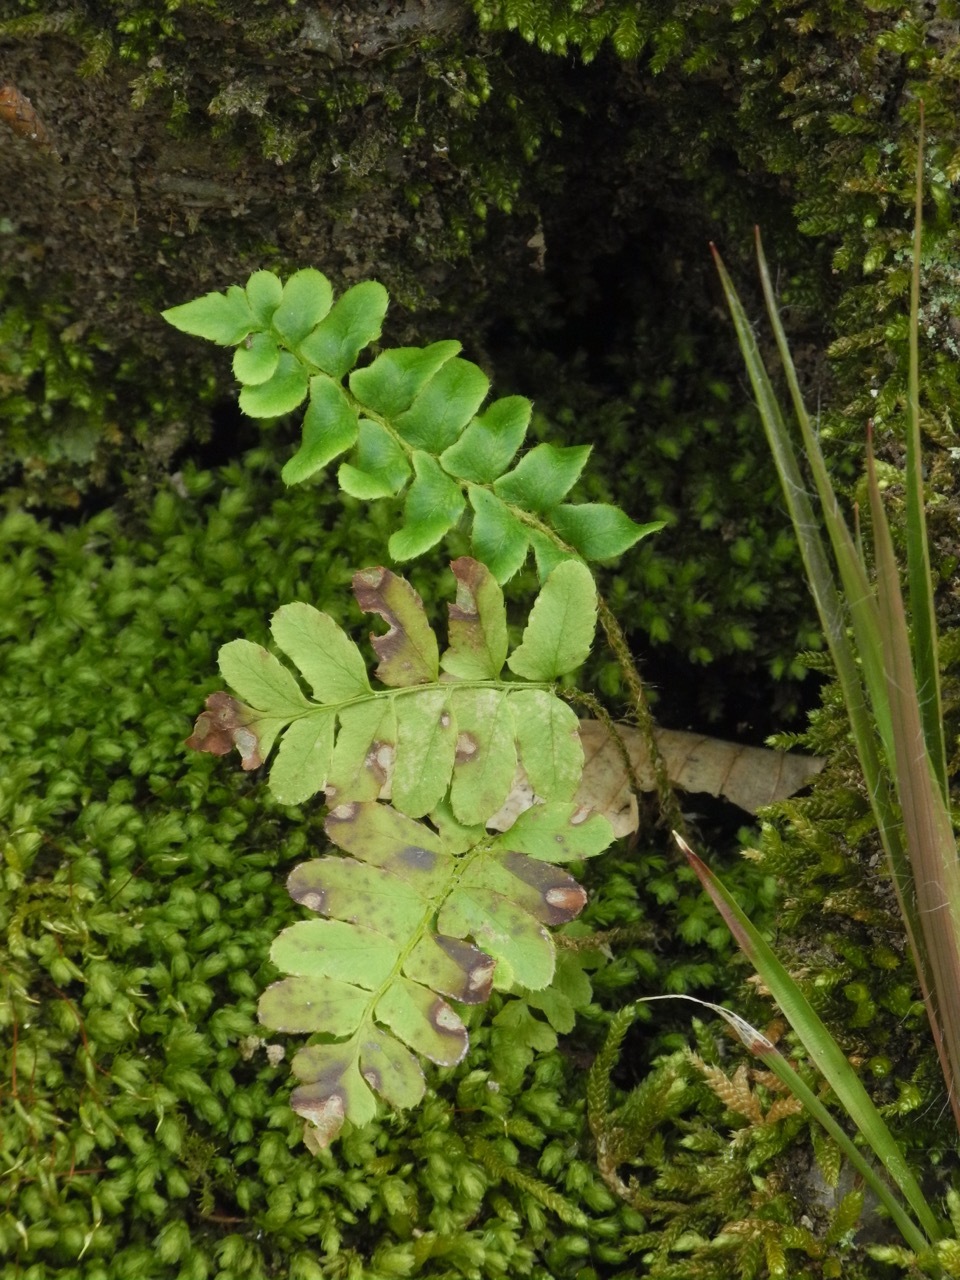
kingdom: Plantae
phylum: Tracheophyta
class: Polypodiopsida
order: Polypodiales
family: Dryopteridaceae
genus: Polystichum
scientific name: Polystichum acrostichoides
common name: Christmas fern
